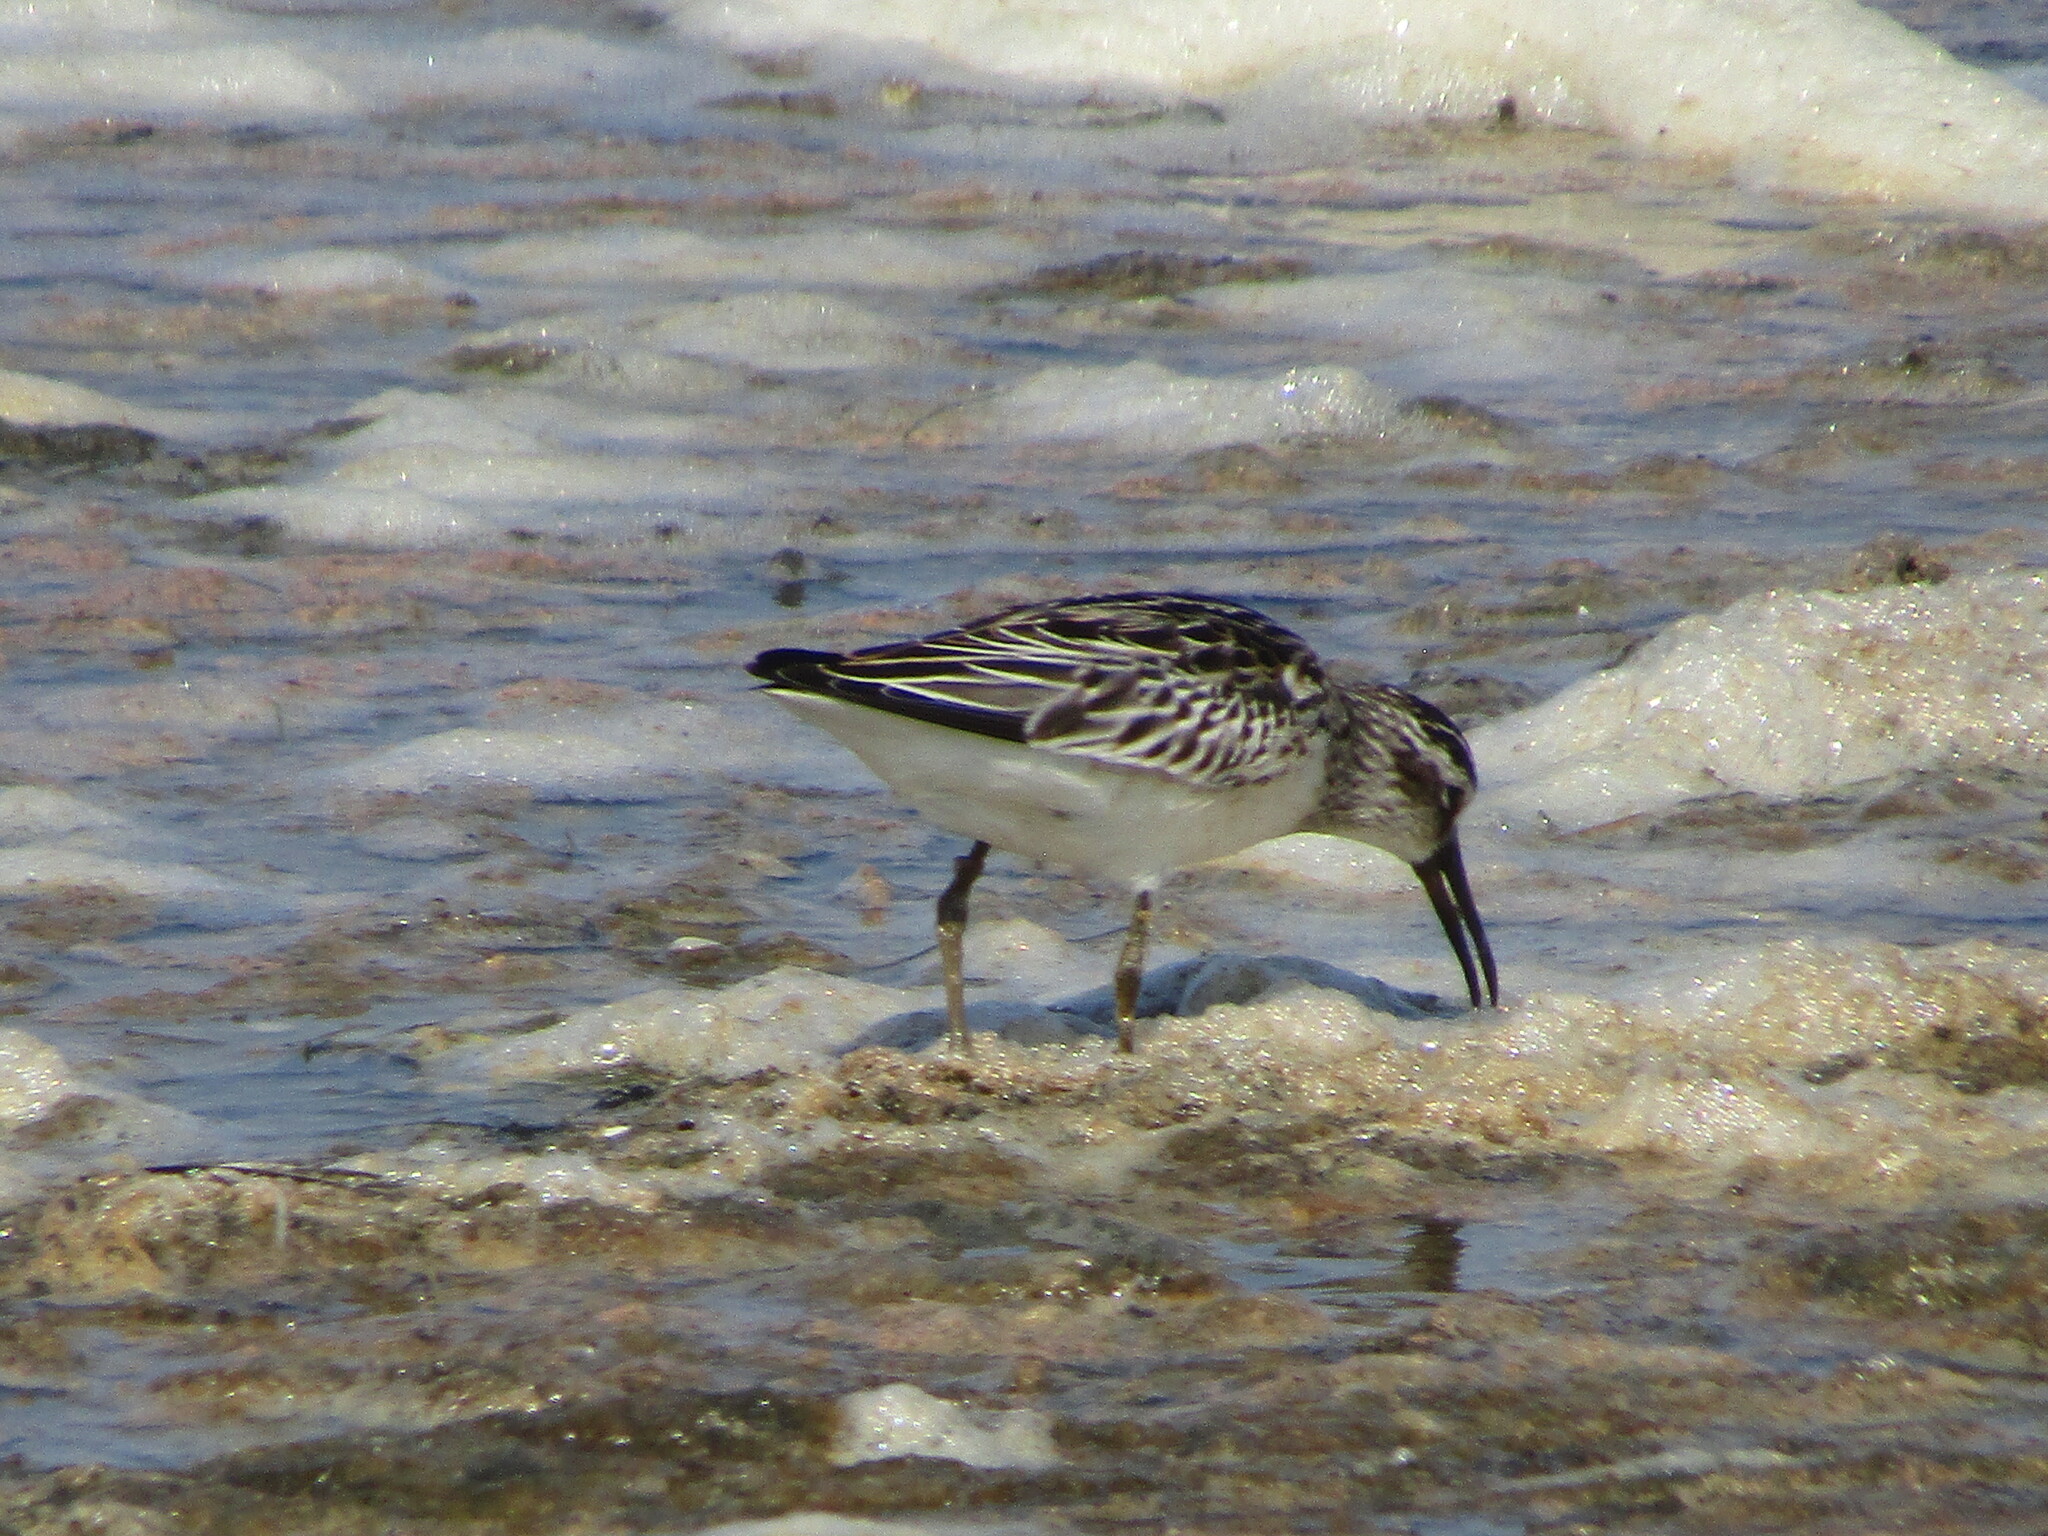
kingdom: Animalia
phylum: Chordata
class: Aves
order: Charadriiformes
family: Scolopacidae
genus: Calidris
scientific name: Calidris falcinellus
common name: Broad-billed sandpiper
